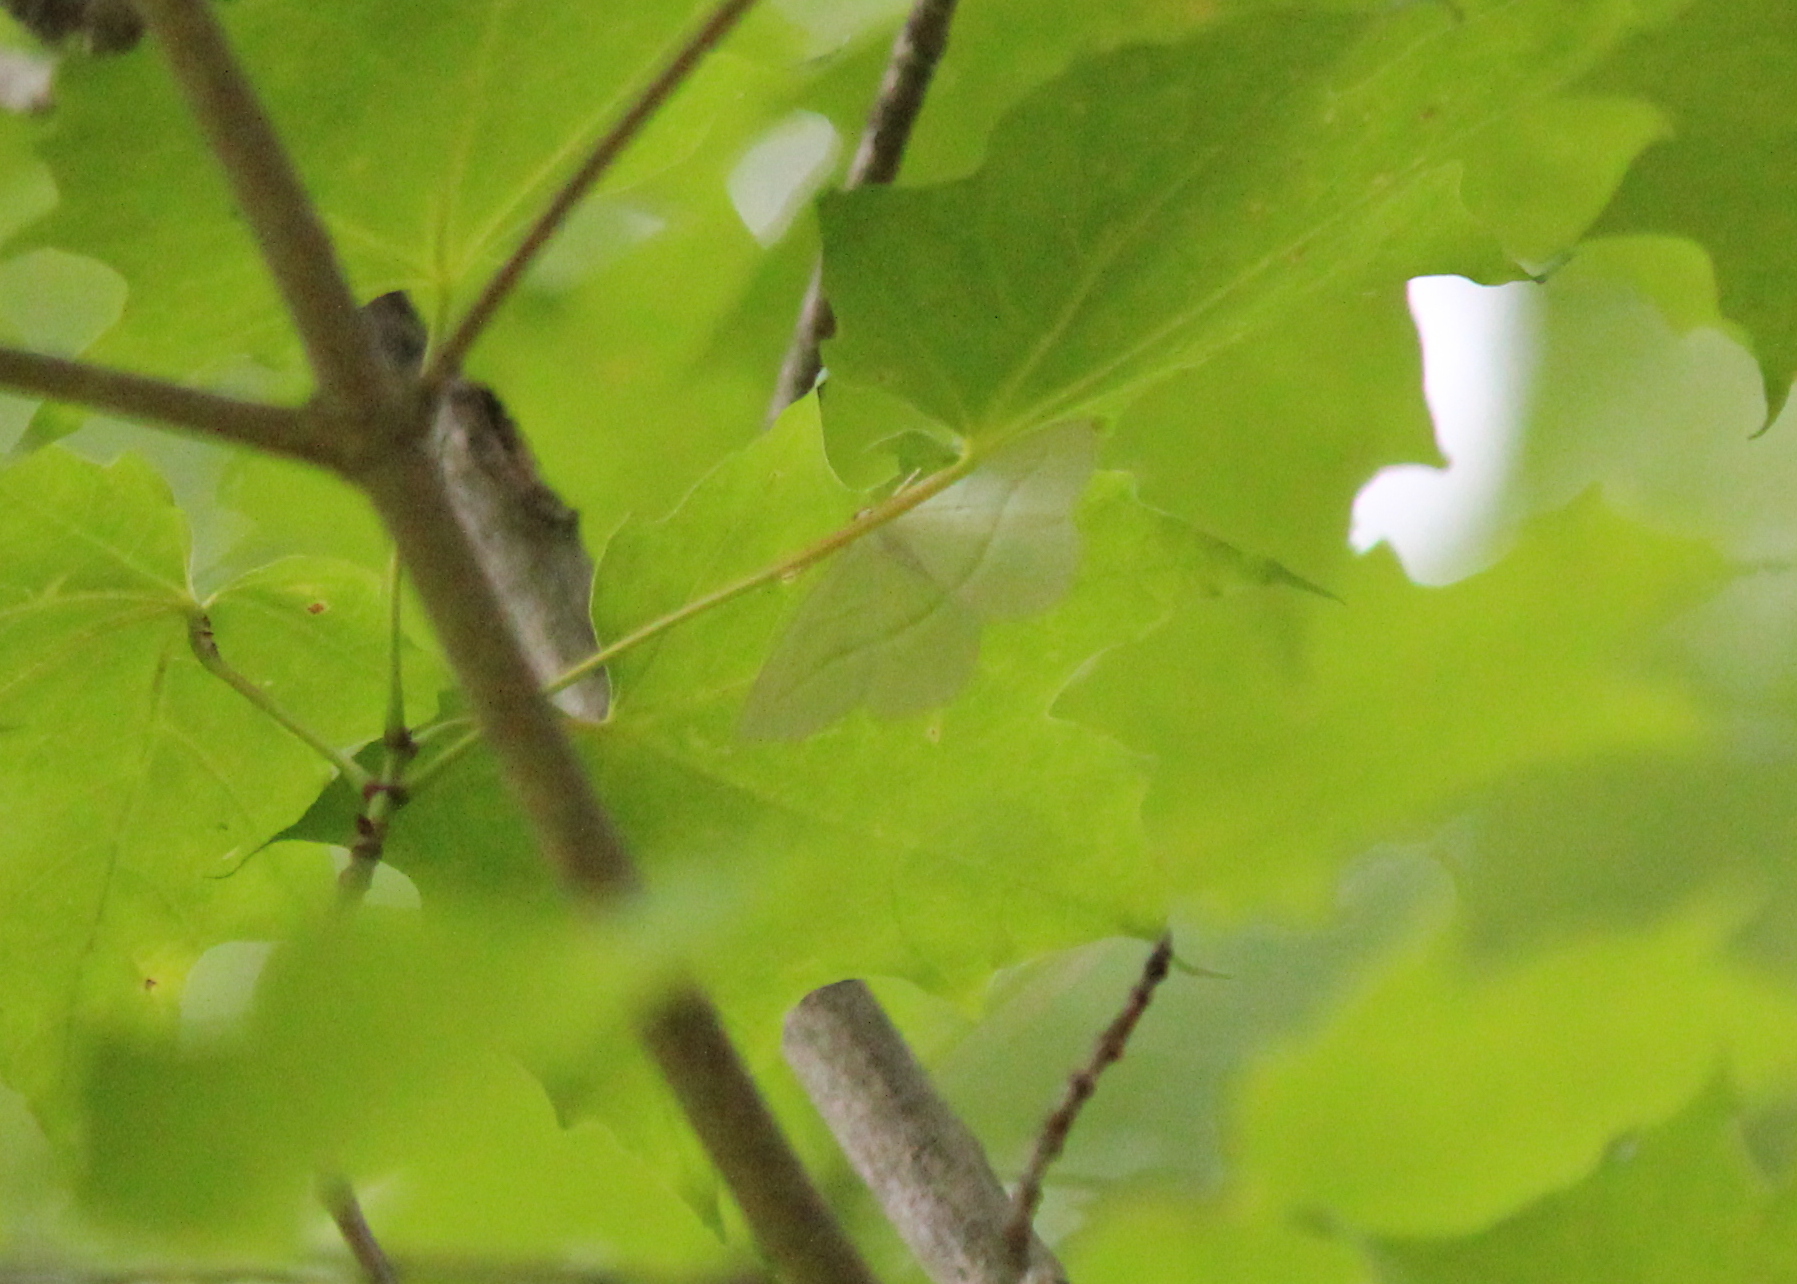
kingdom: Animalia
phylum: Arthropoda
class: Insecta
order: Lepidoptera
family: Geometridae
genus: Campaea
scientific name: Campaea perlata
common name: Fringed looper
